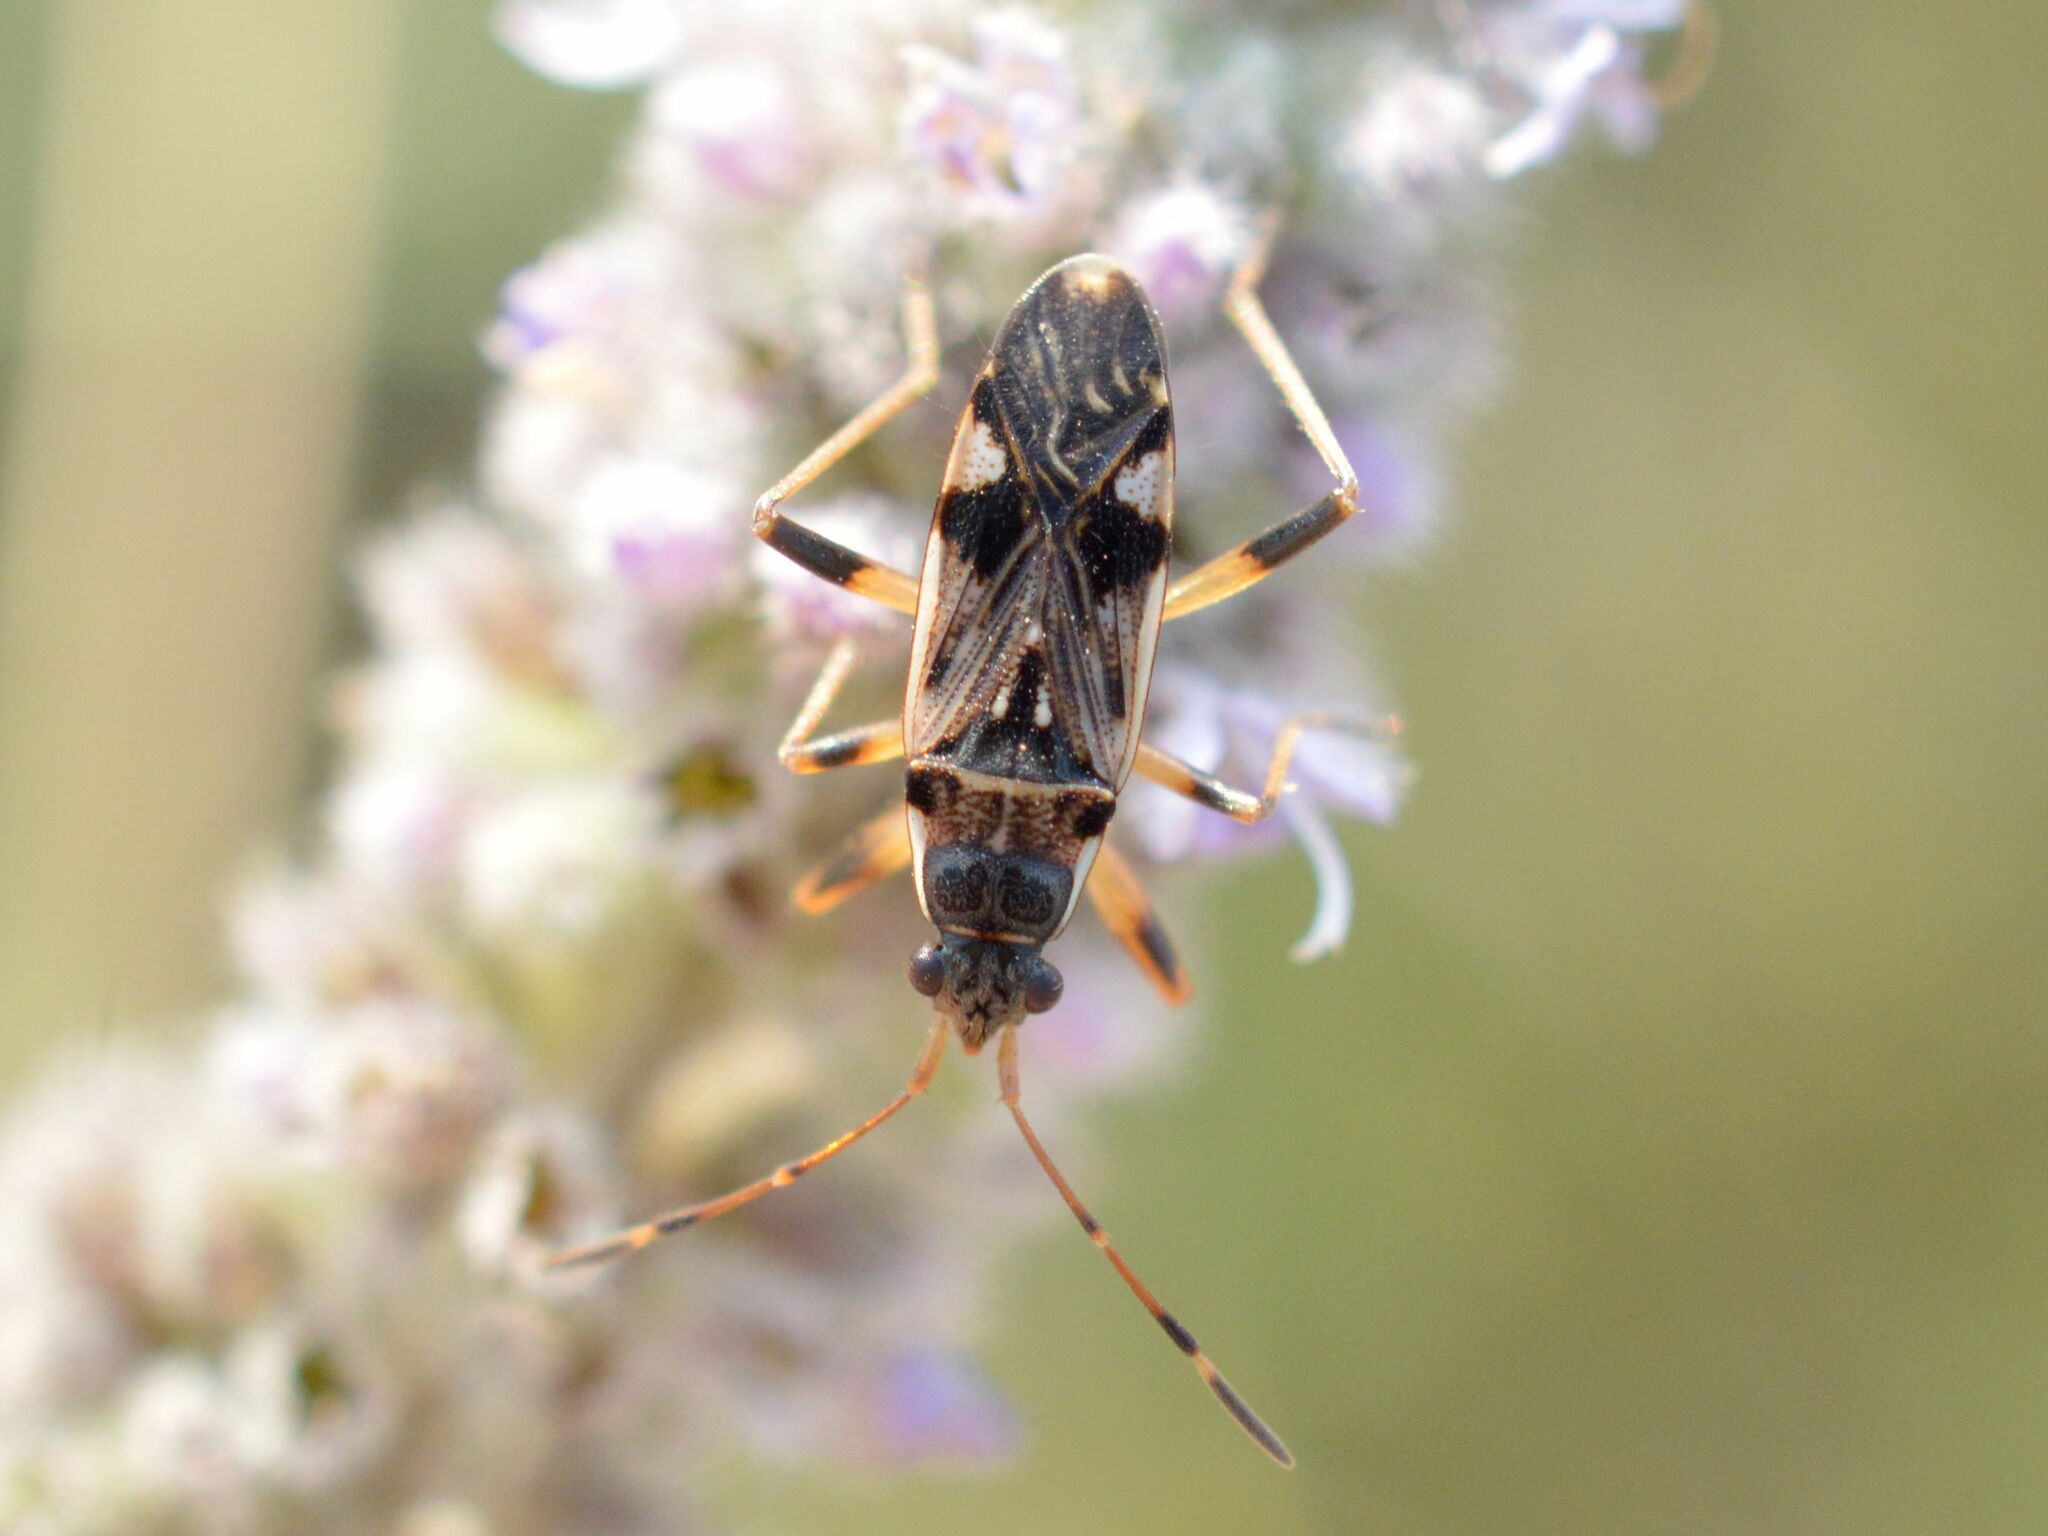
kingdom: Animalia
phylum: Arthropoda
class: Insecta
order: Hemiptera
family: Rhyparochromidae
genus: Beosus
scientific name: Beosus maritimus
